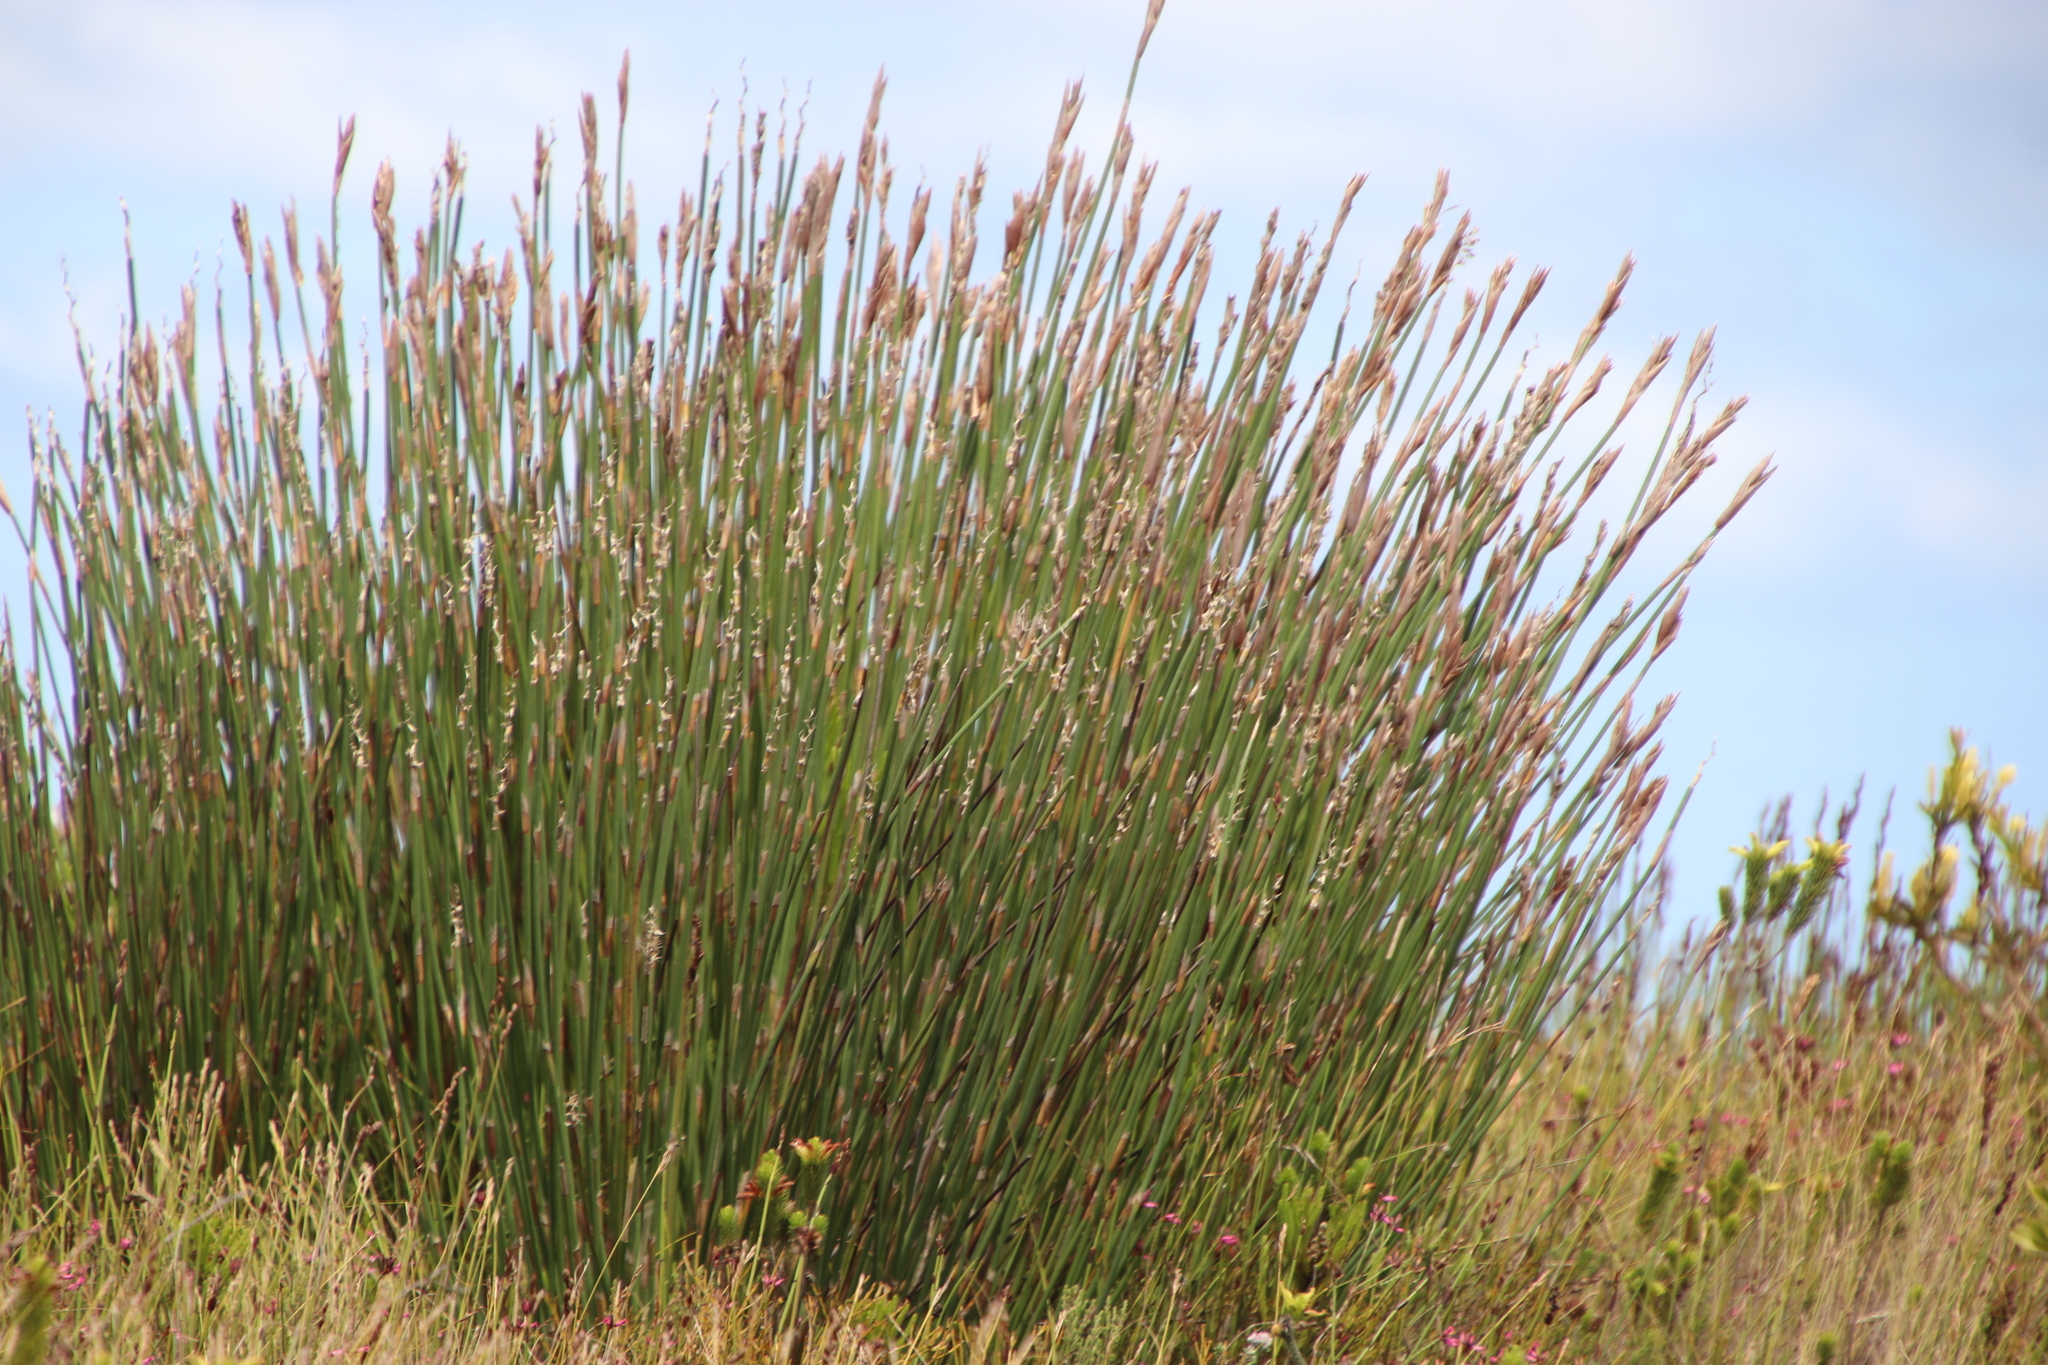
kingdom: Plantae
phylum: Tracheophyta
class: Liliopsida
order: Poales
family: Restionaceae
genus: Ceratocaryum
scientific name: Ceratocaryum caespitosum
